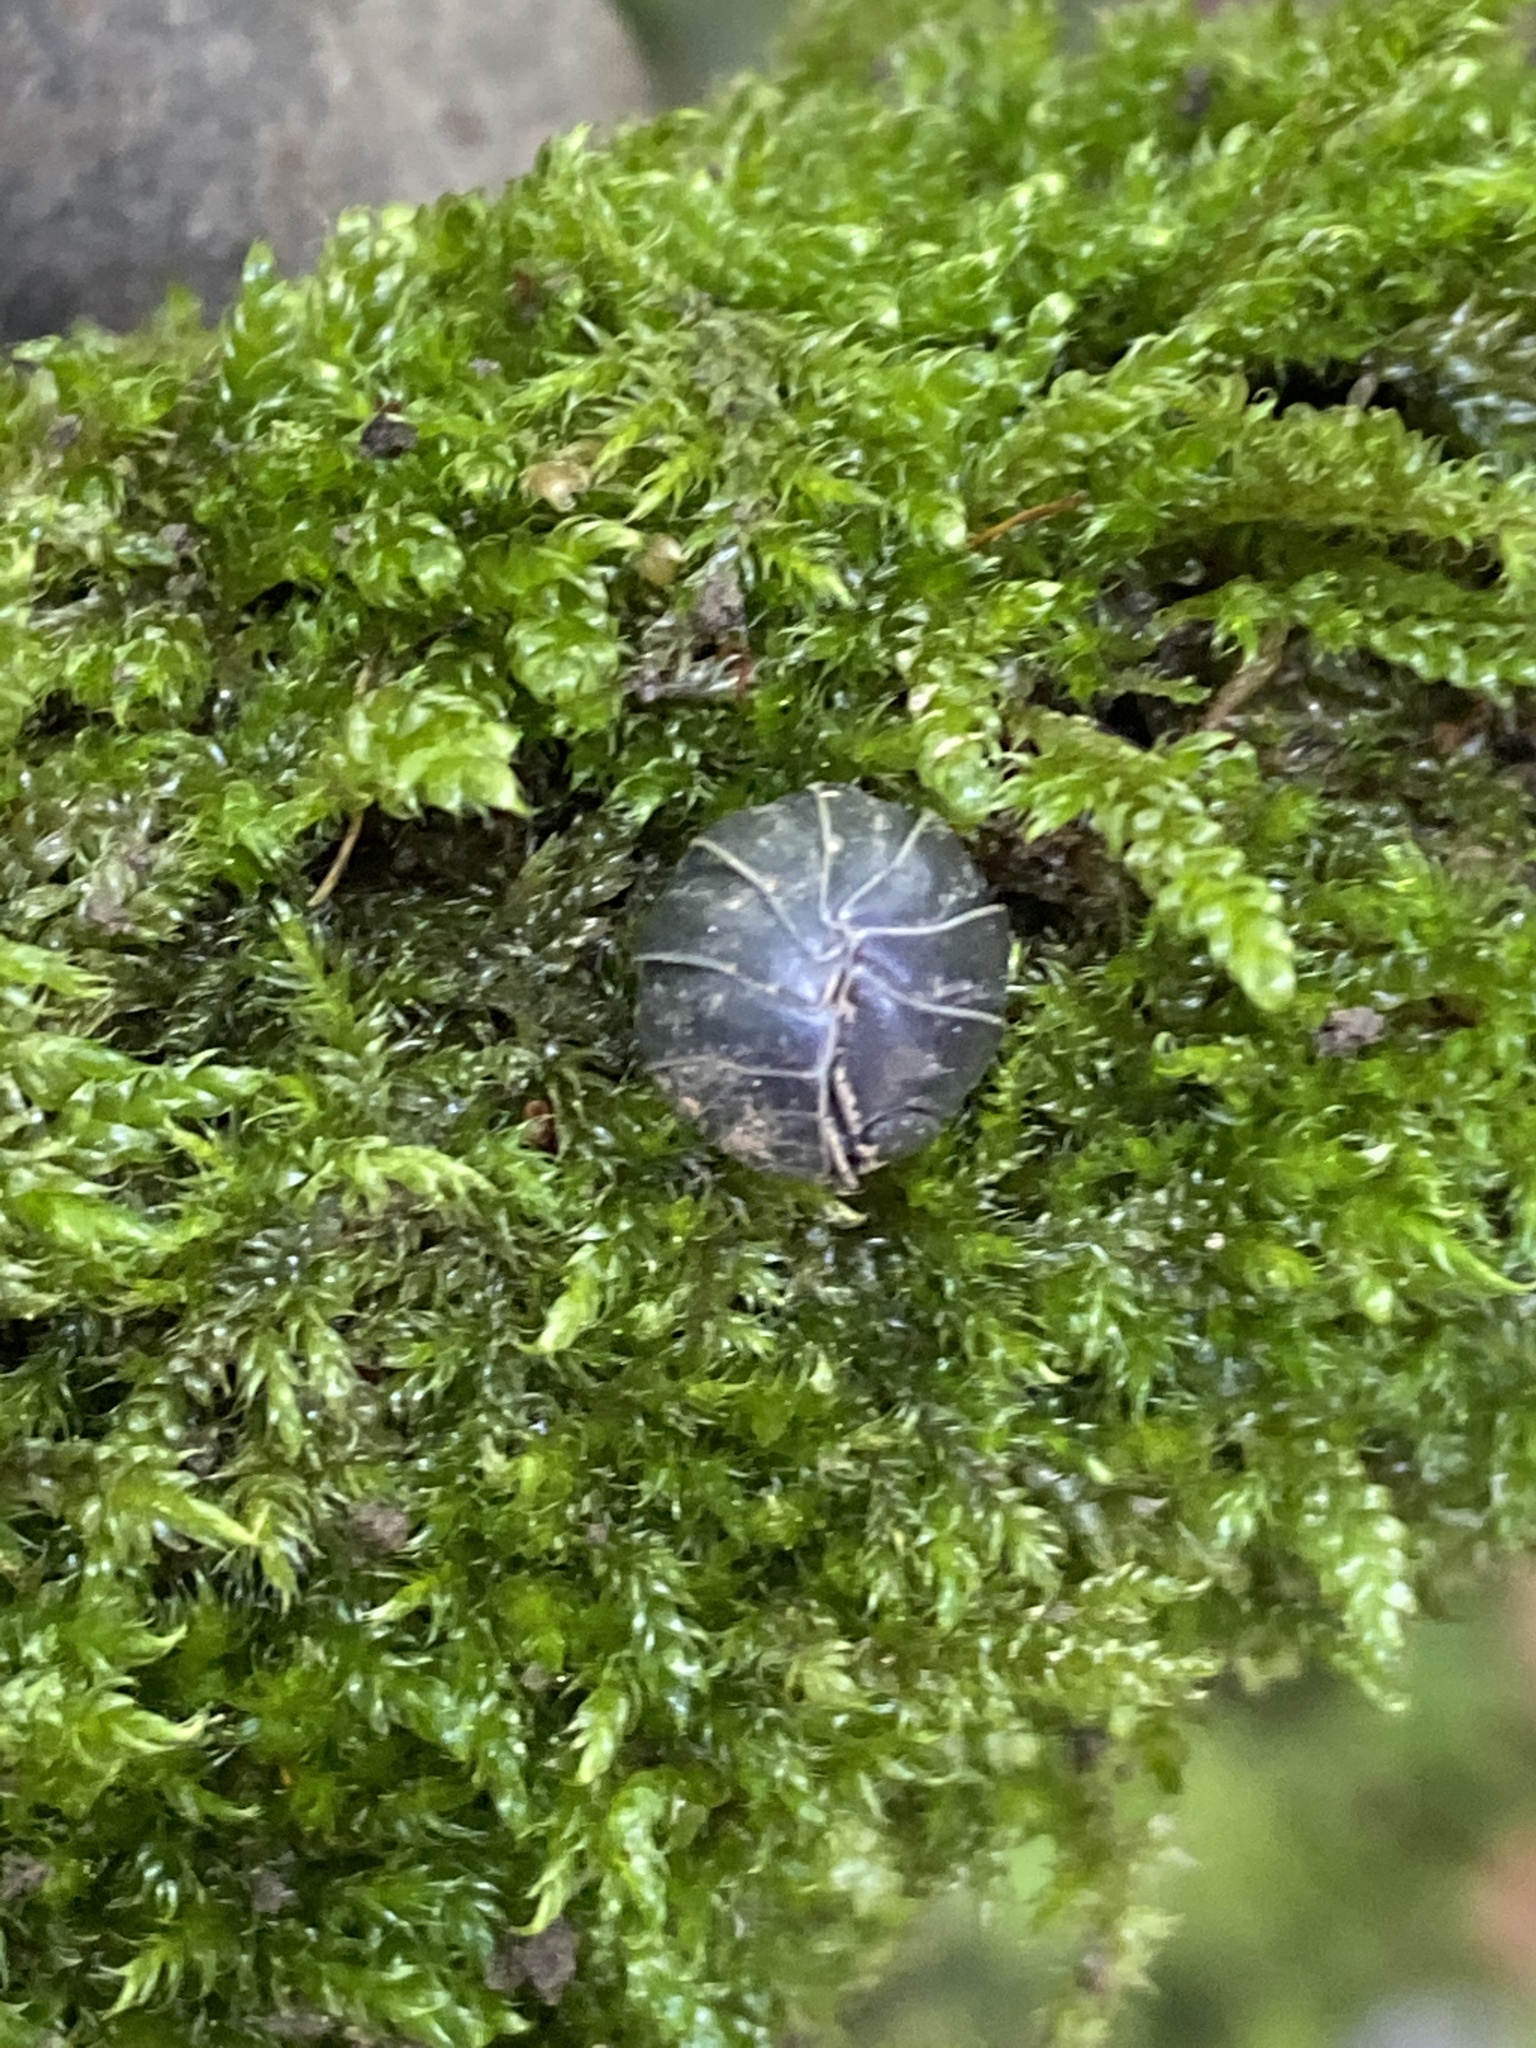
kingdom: Animalia
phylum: Arthropoda
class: Malacostraca
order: Isopoda
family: Armadillidiidae
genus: Armadillidium
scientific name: Armadillidium vulgare
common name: Common pill woodlouse
